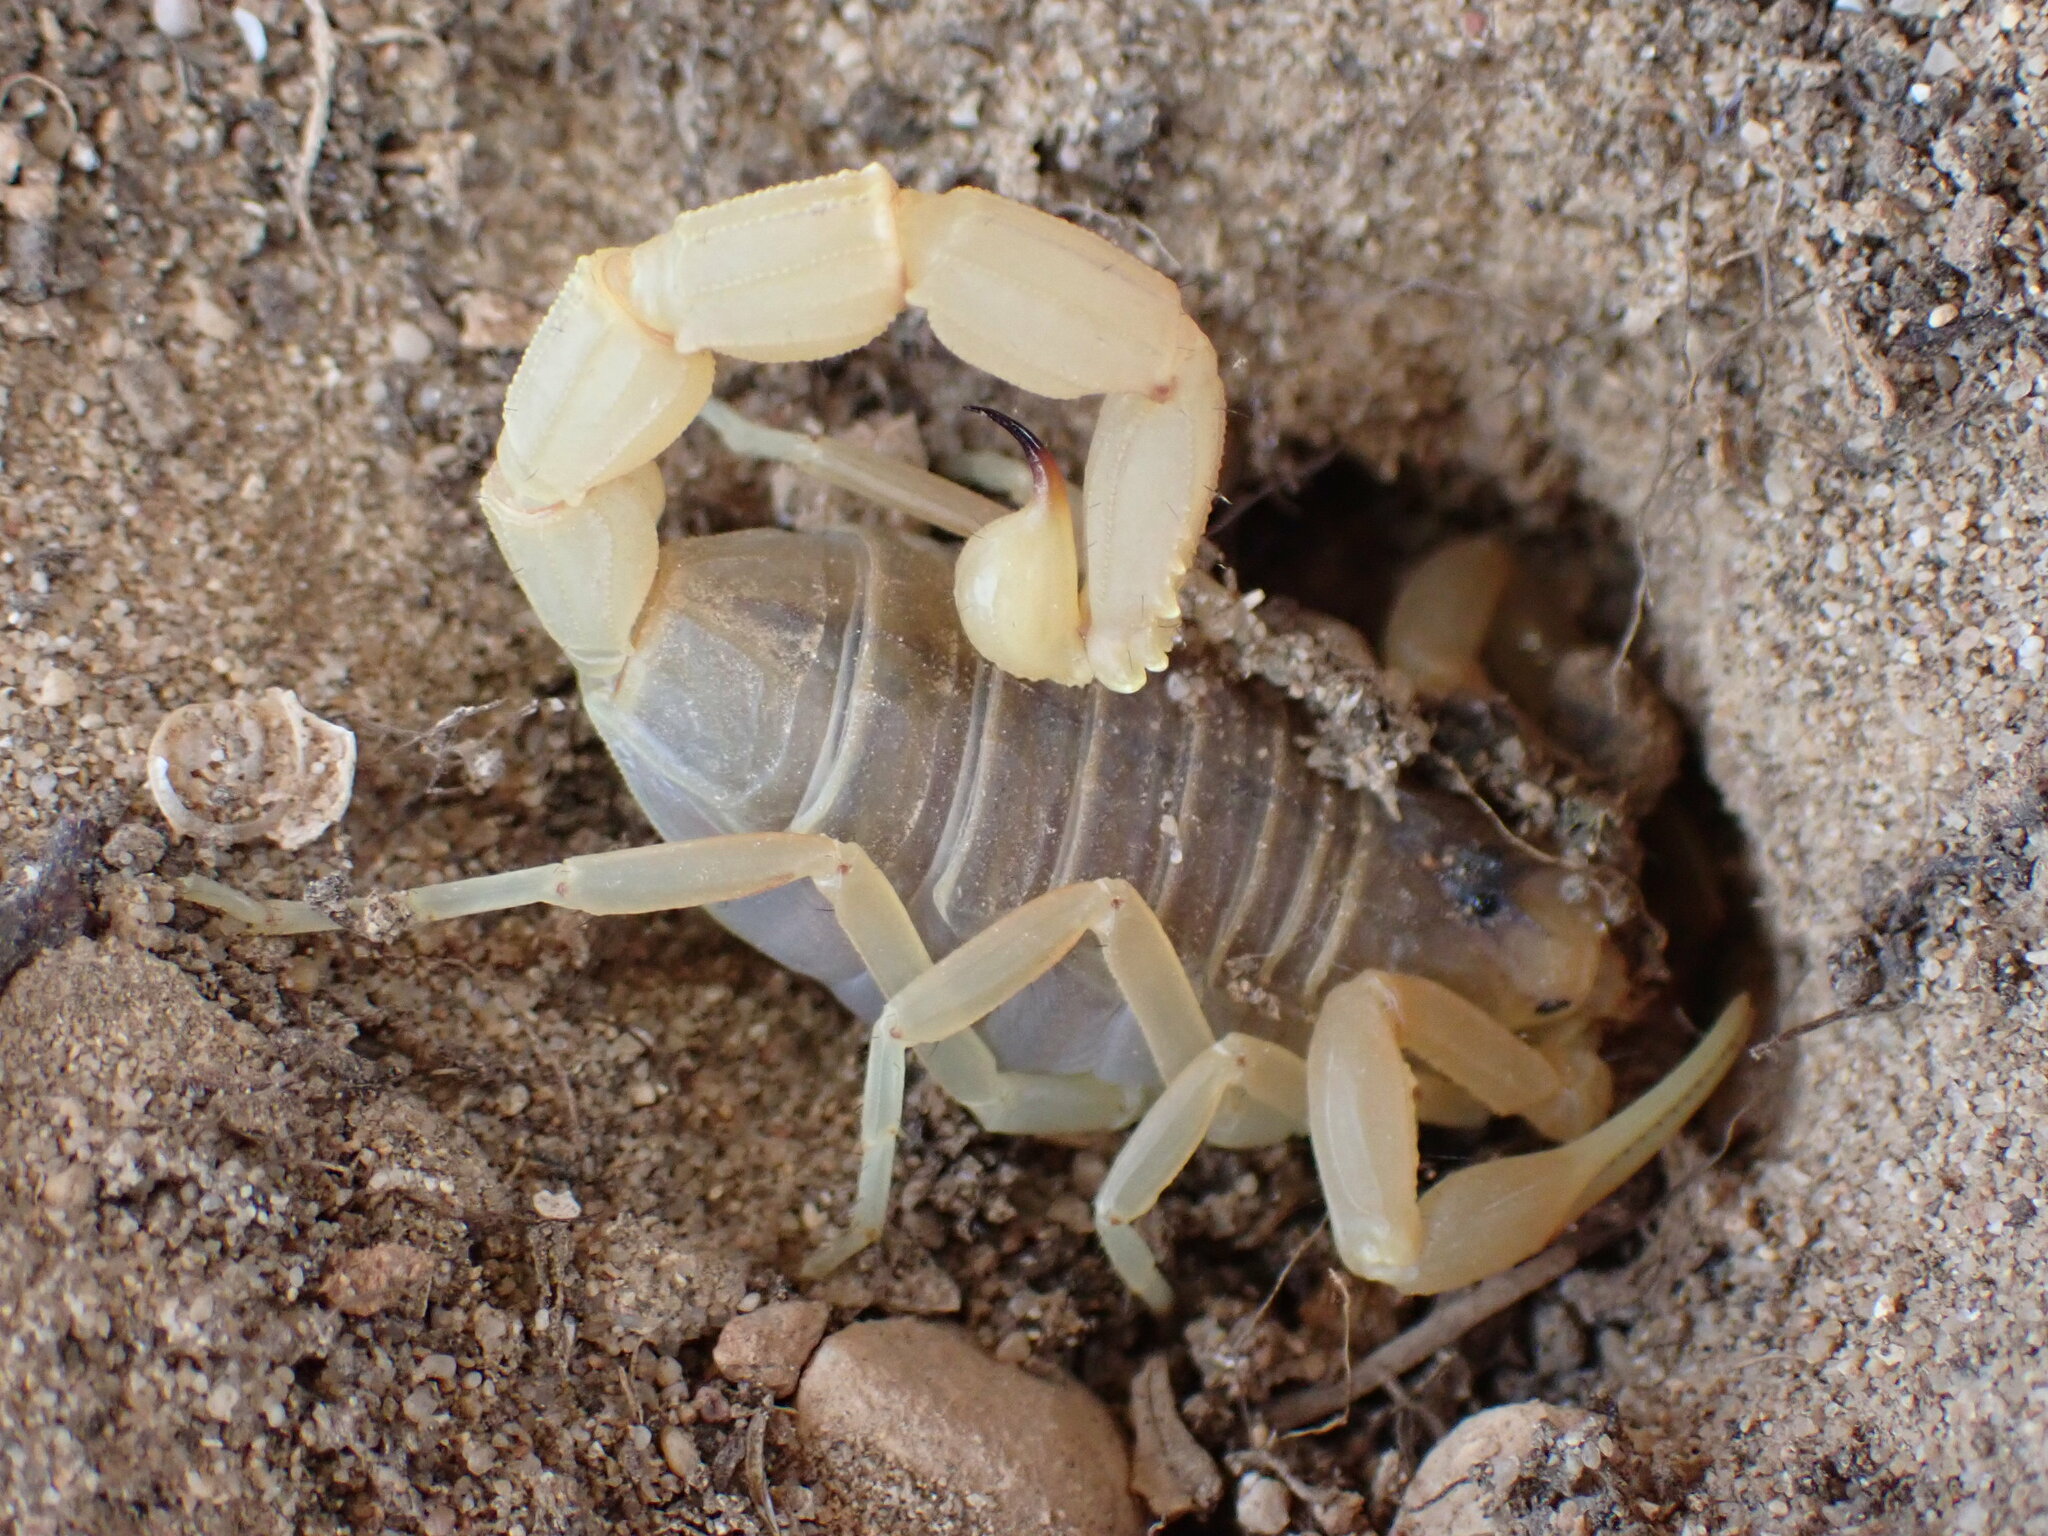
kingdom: Animalia
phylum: Arthropoda
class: Arachnida
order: Scorpiones
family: Buthidae
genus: Buthus
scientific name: Buthus occitanus
